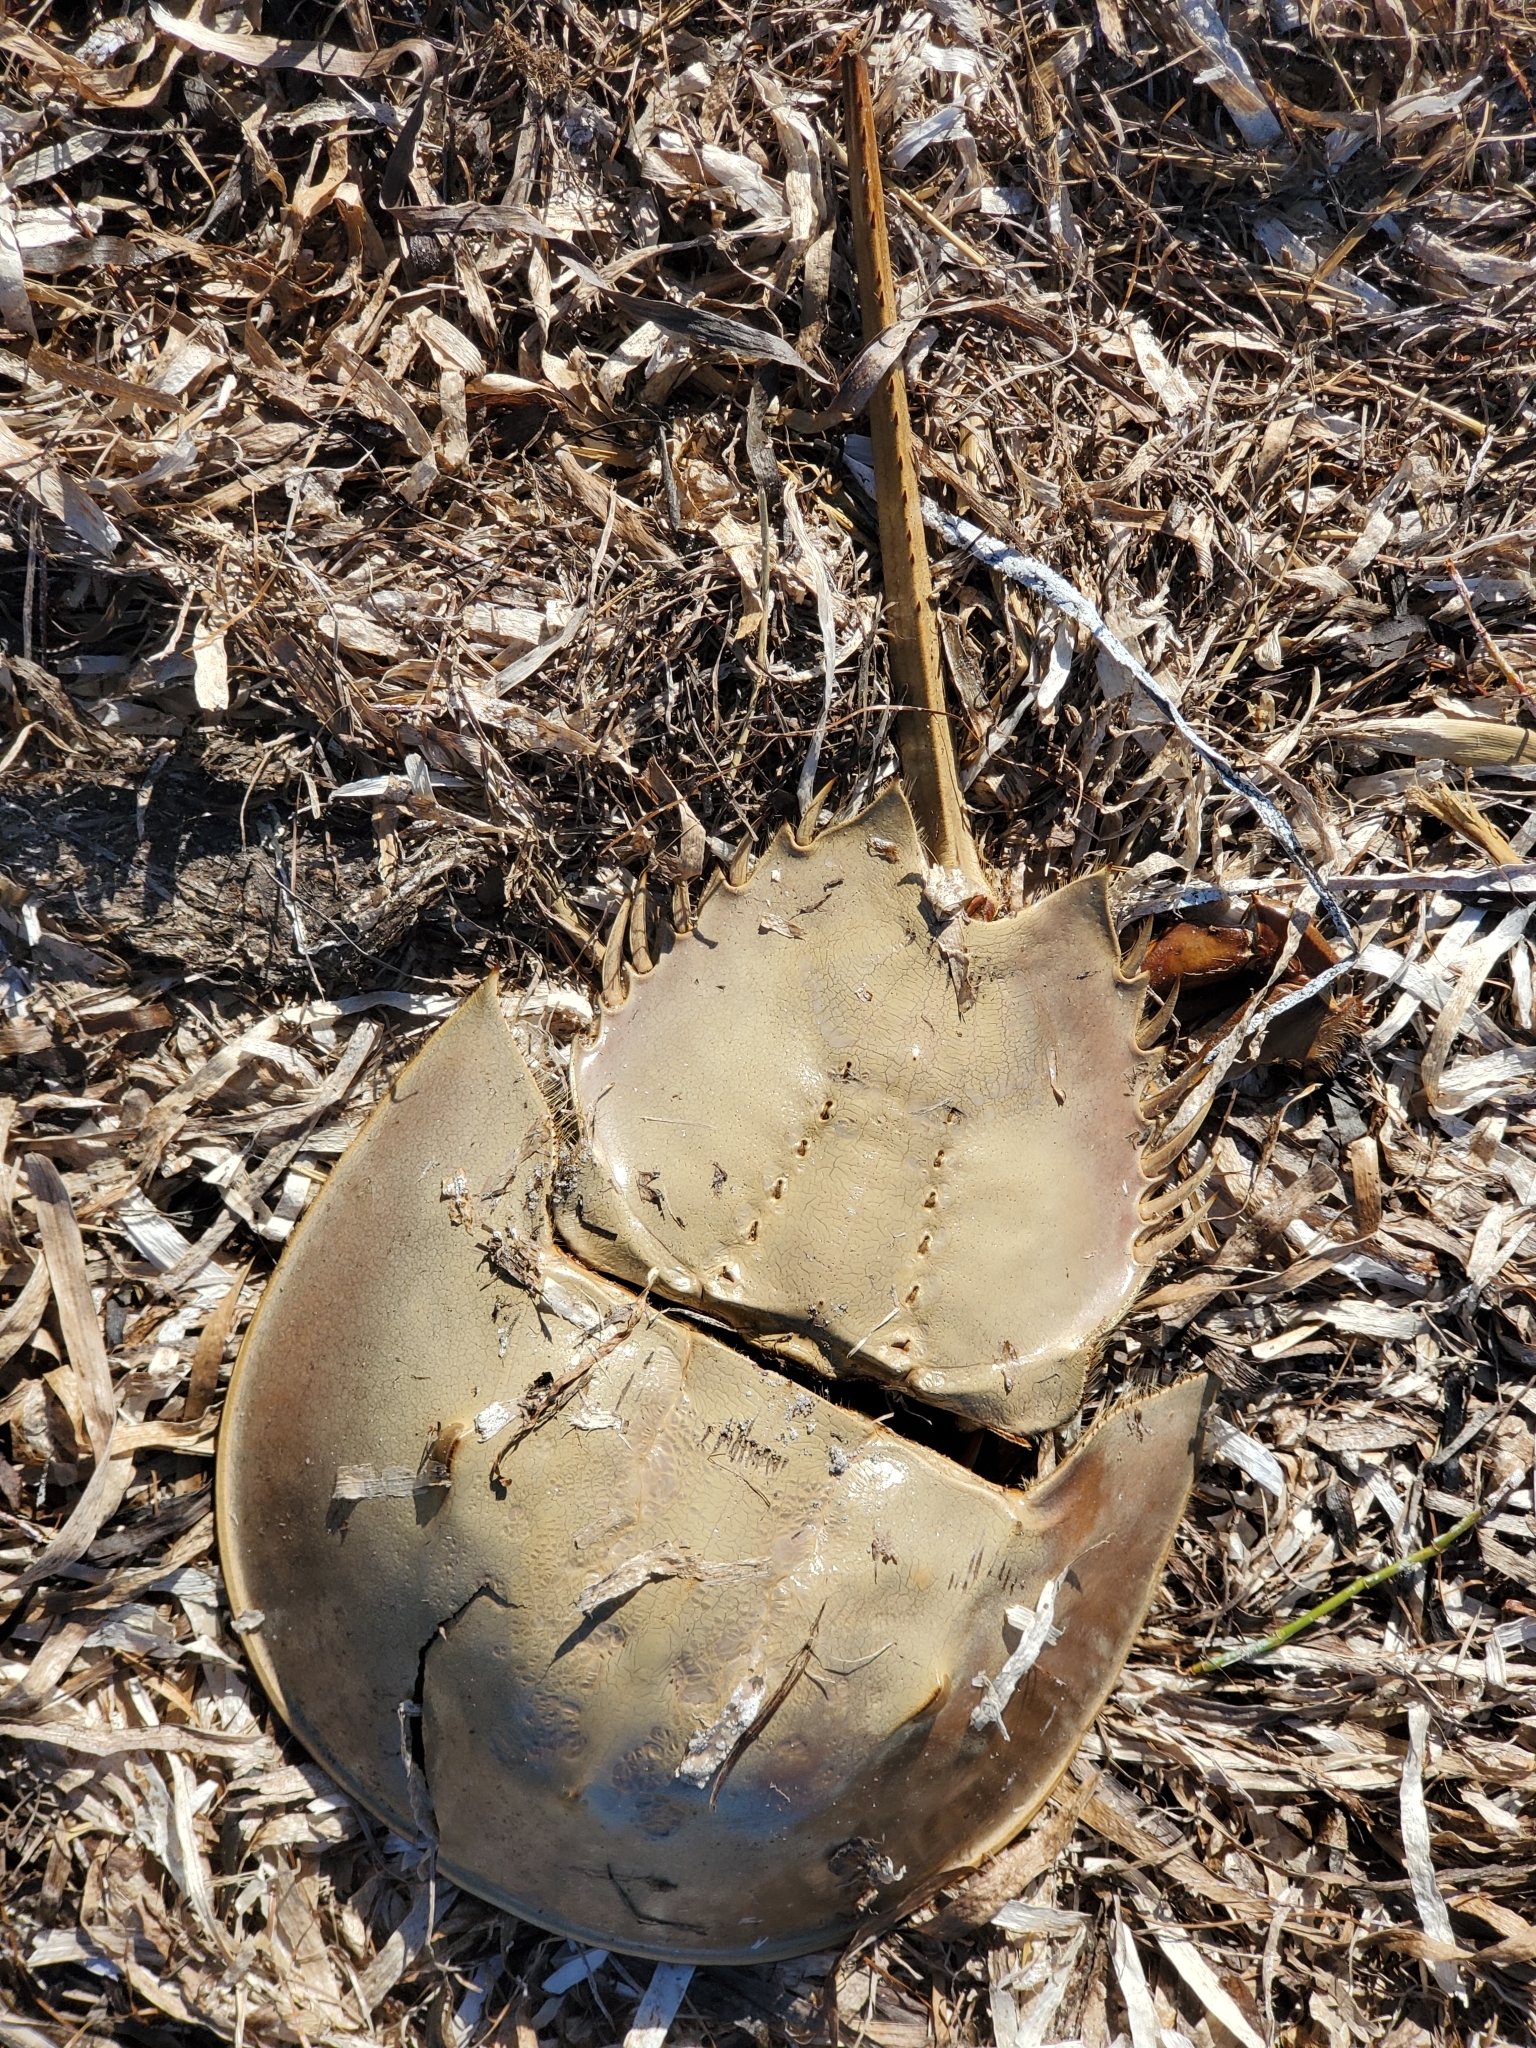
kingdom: Animalia
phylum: Arthropoda
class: Merostomata
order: Xiphosurida
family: Limulidae
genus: Limulus
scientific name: Limulus polyphemus
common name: Horseshoe crab
